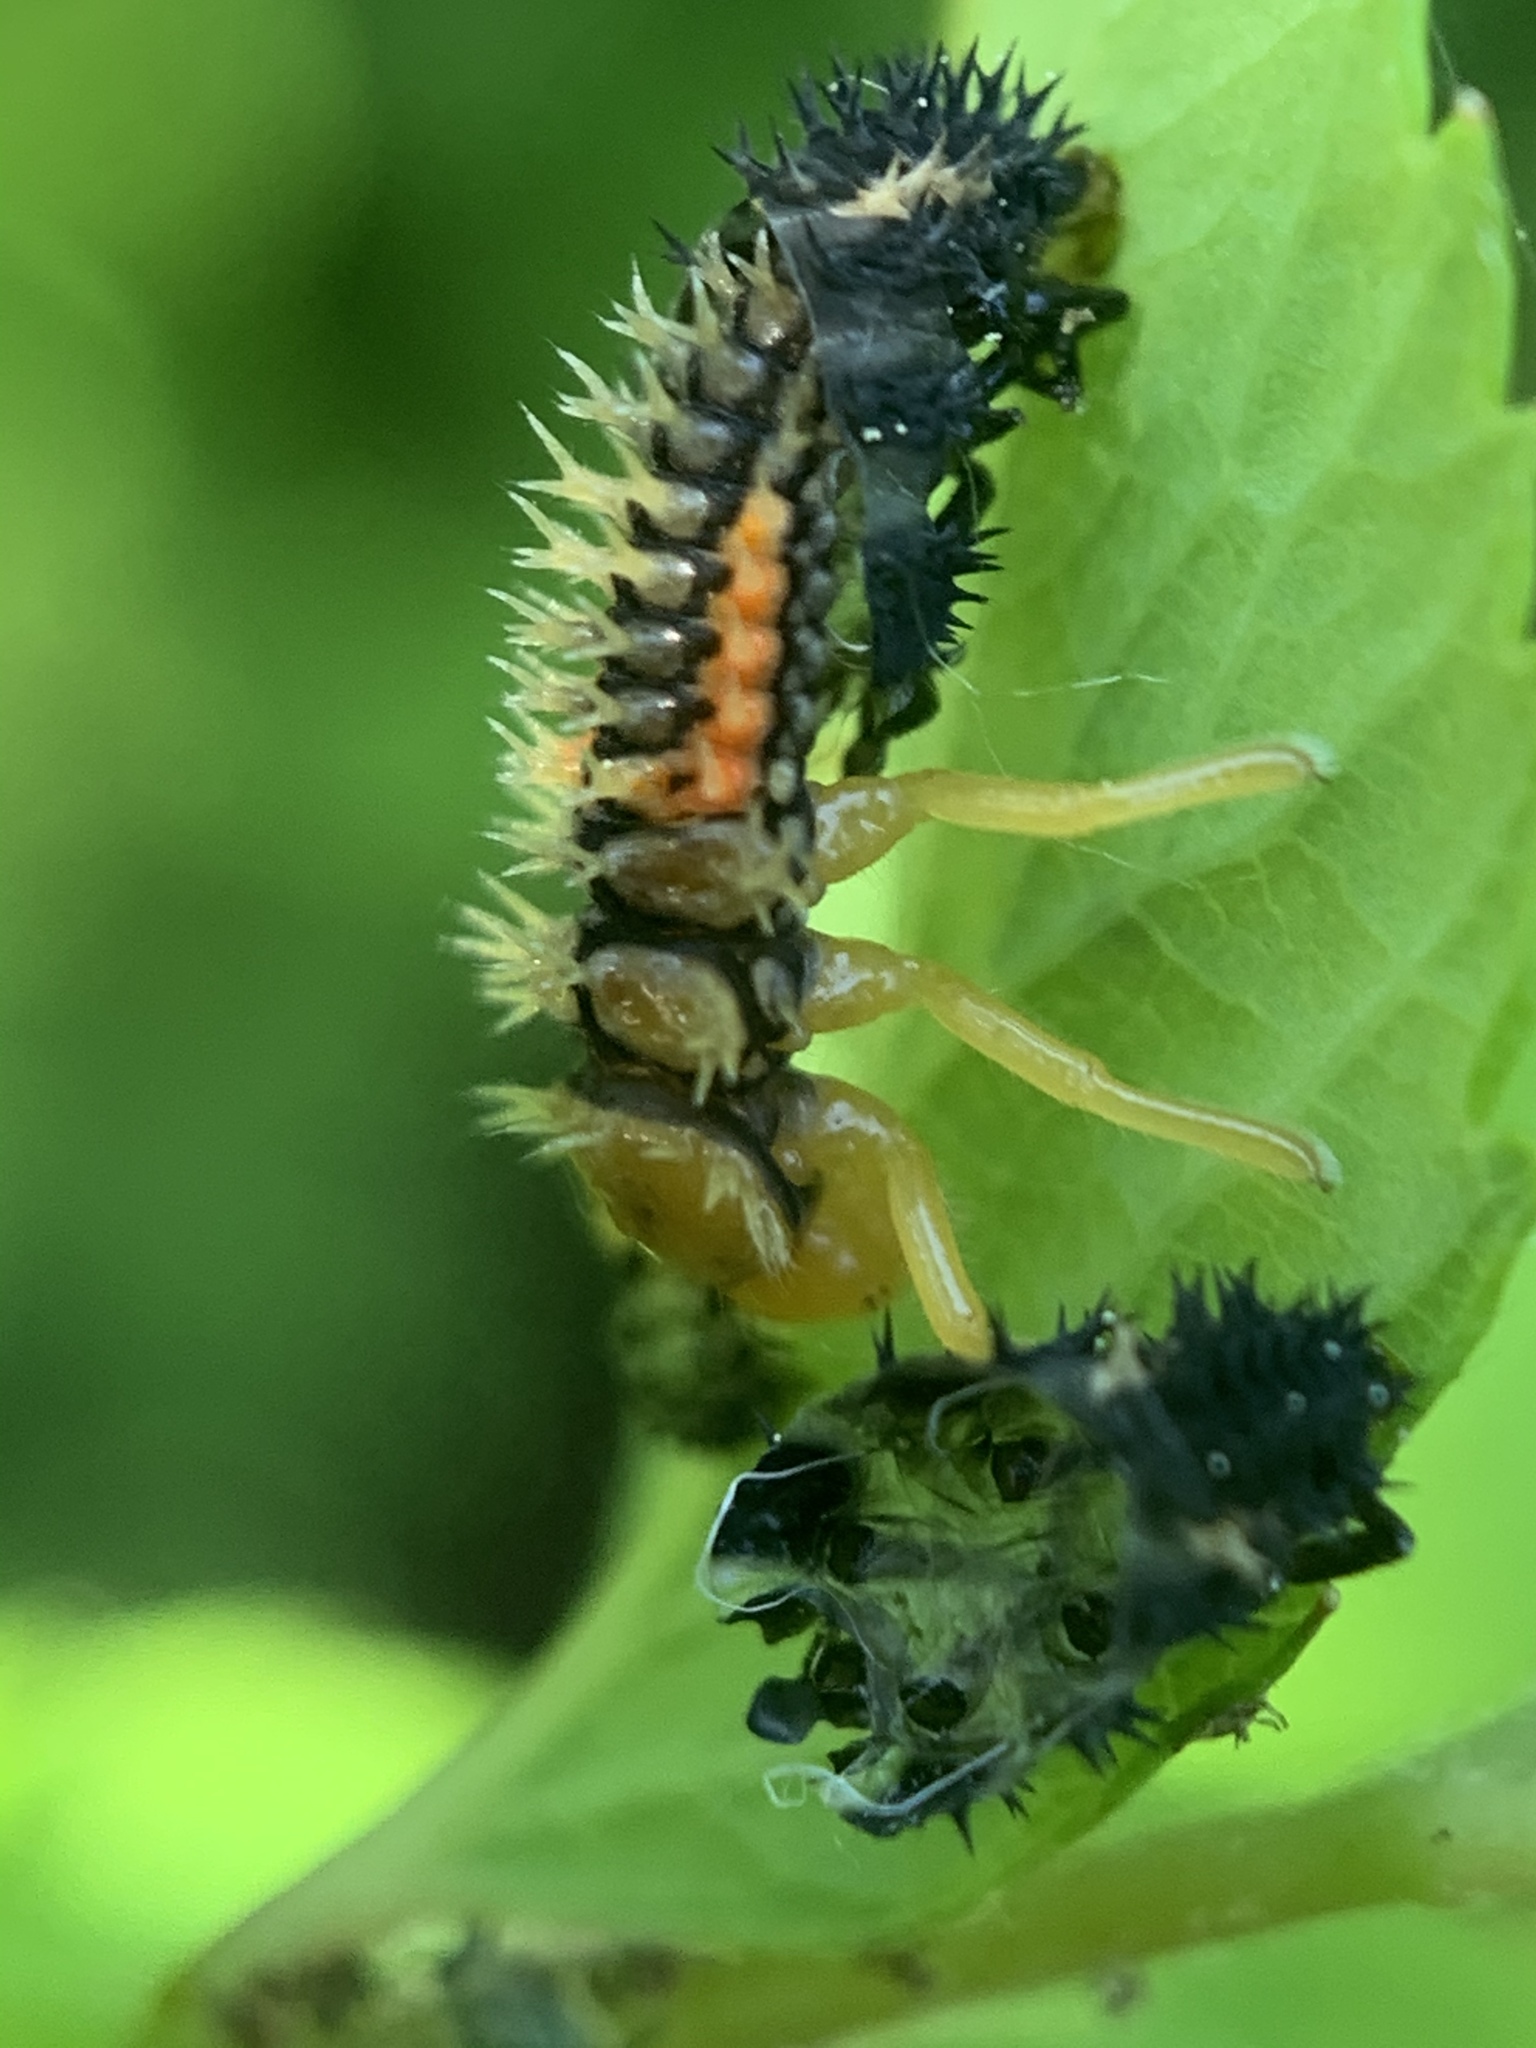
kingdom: Animalia
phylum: Arthropoda
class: Insecta
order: Coleoptera
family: Coccinellidae
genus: Harmonia
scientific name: Harmonia axyridis
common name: Harlequin ladybird
